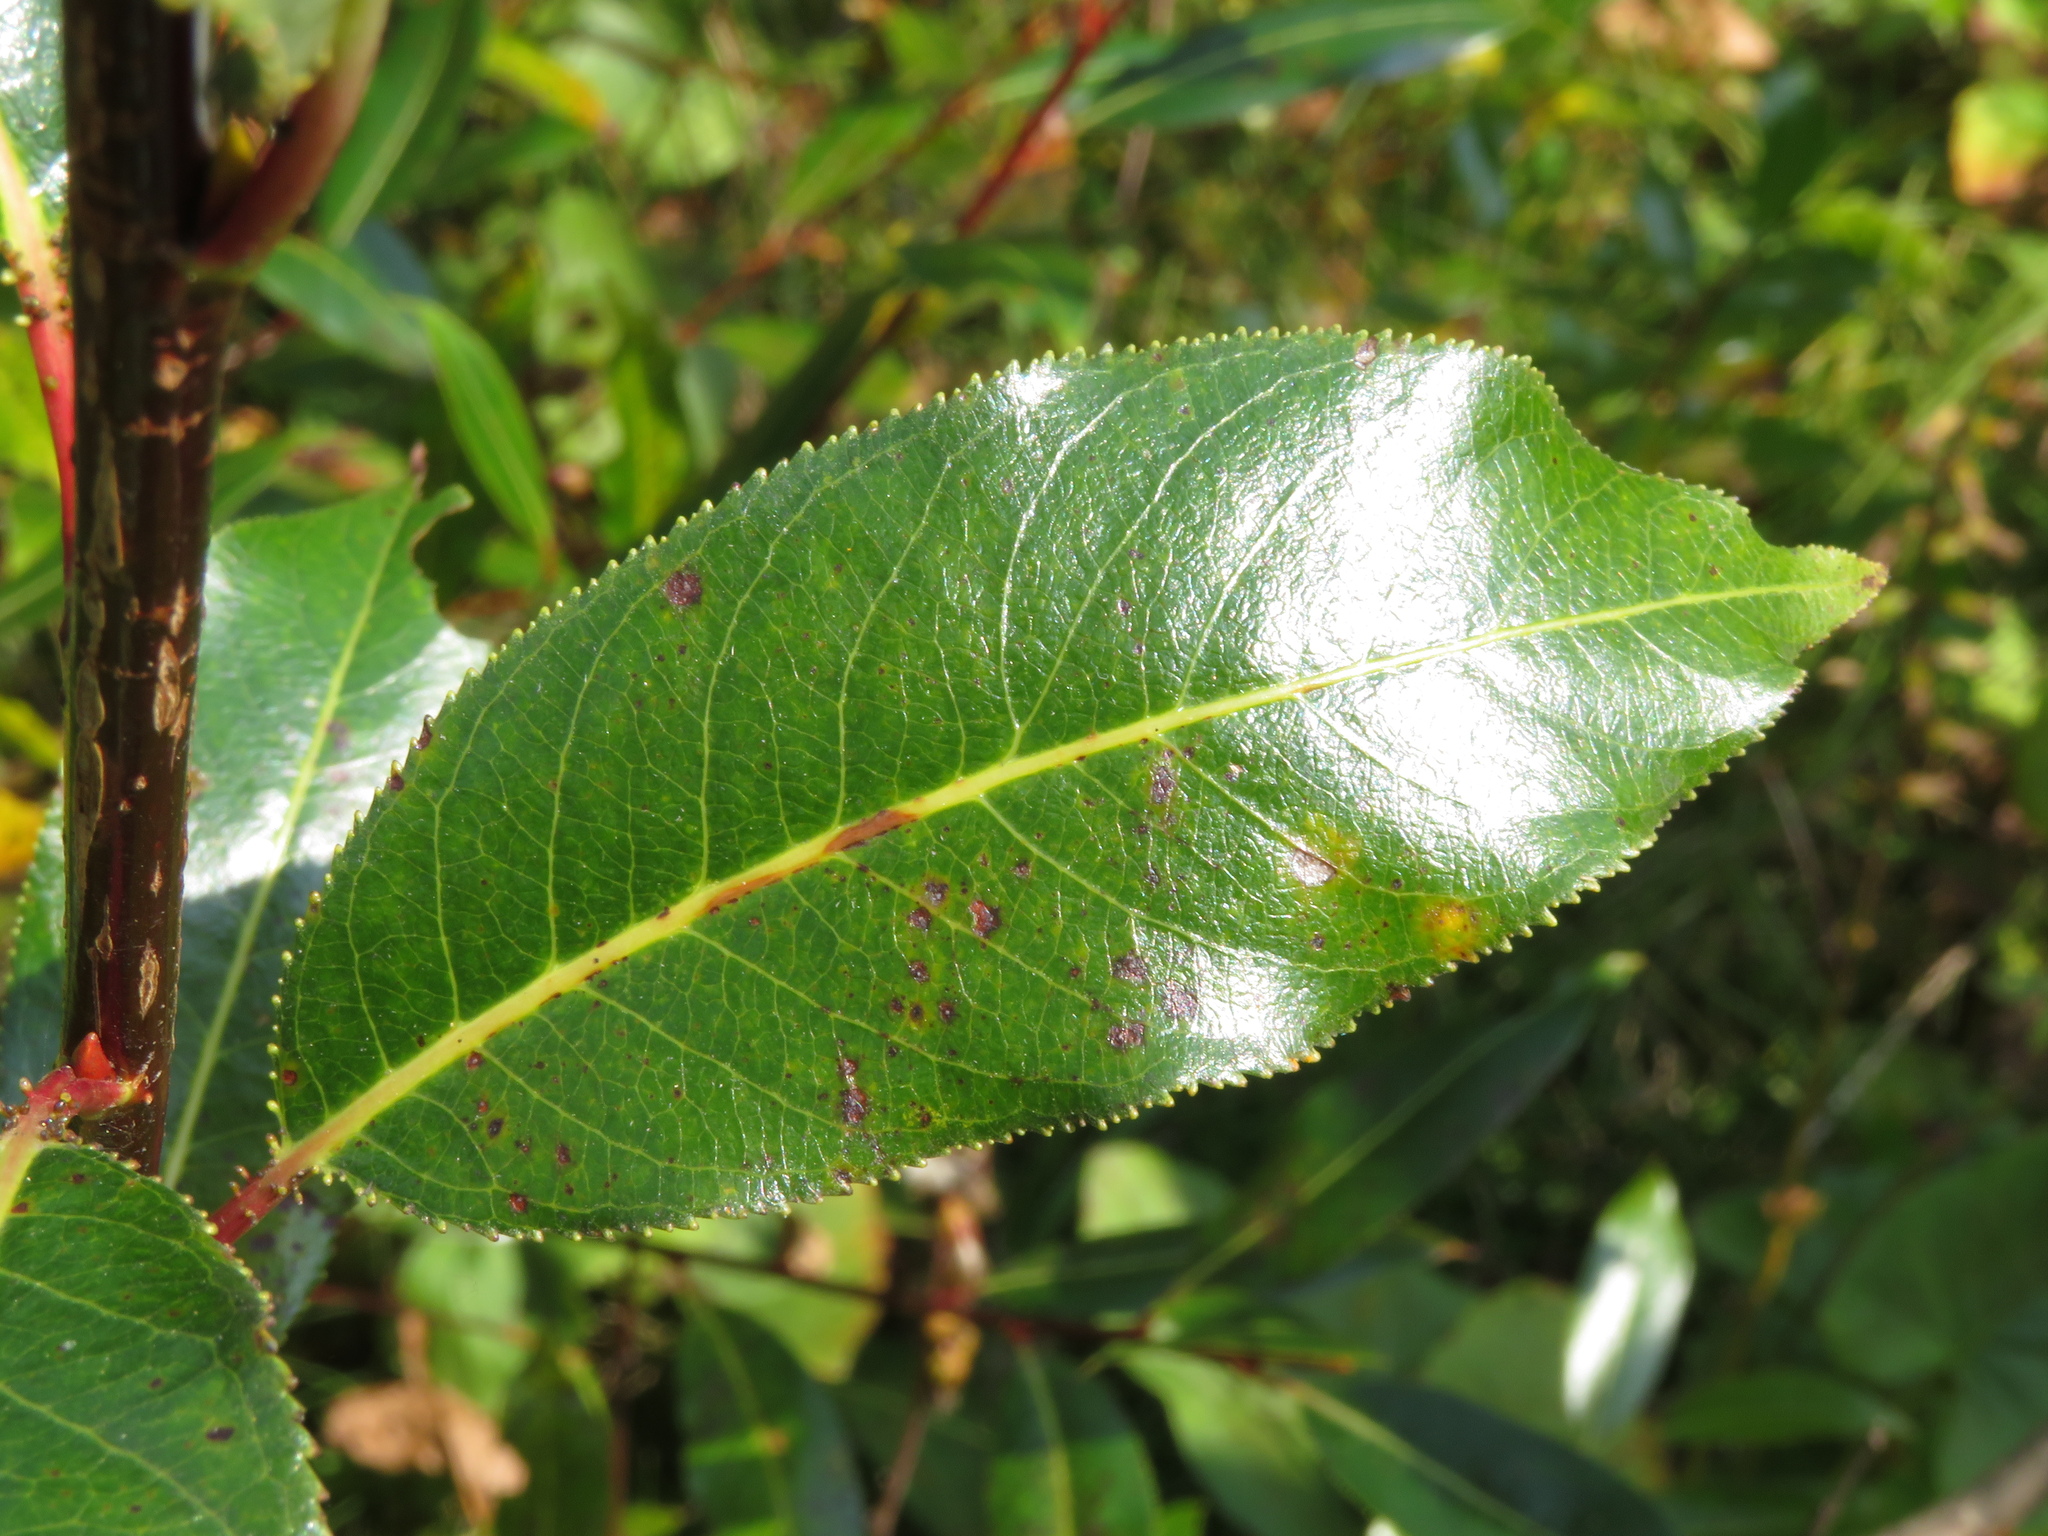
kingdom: Plantae
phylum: Tracheophyta
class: Magnoliopsida
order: Malpighiales
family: Salicaceae
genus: Salix
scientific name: Salix pentandra
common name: Bay willow
